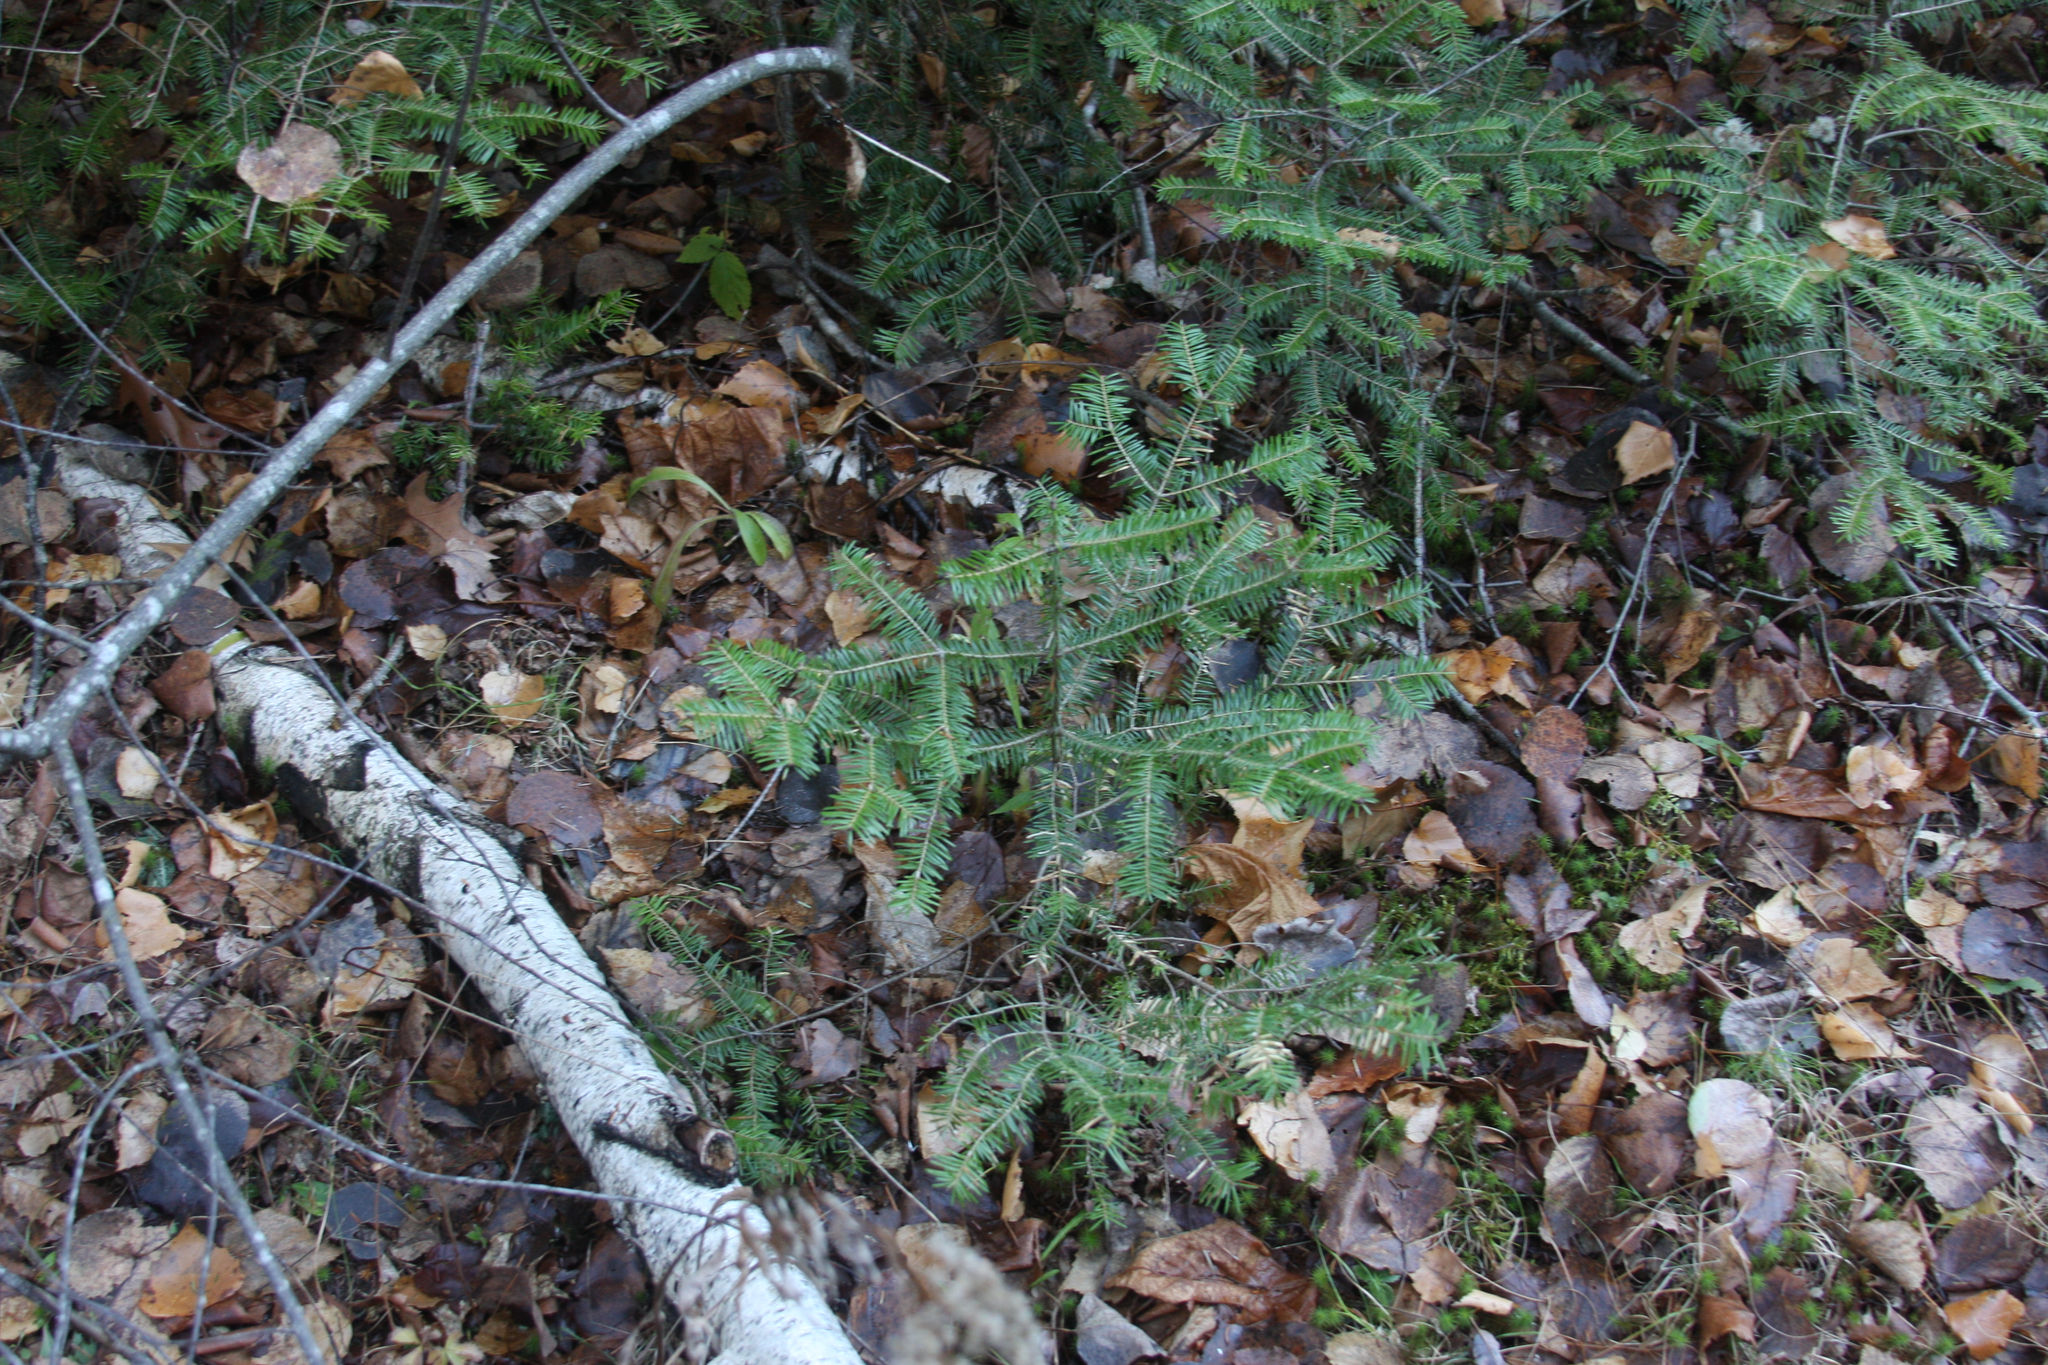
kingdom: Plantae
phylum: Tracheophyta
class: Pinopsida
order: Pinales
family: Pinaceae
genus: Abies
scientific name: Abies balsamea
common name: Balsam fir
